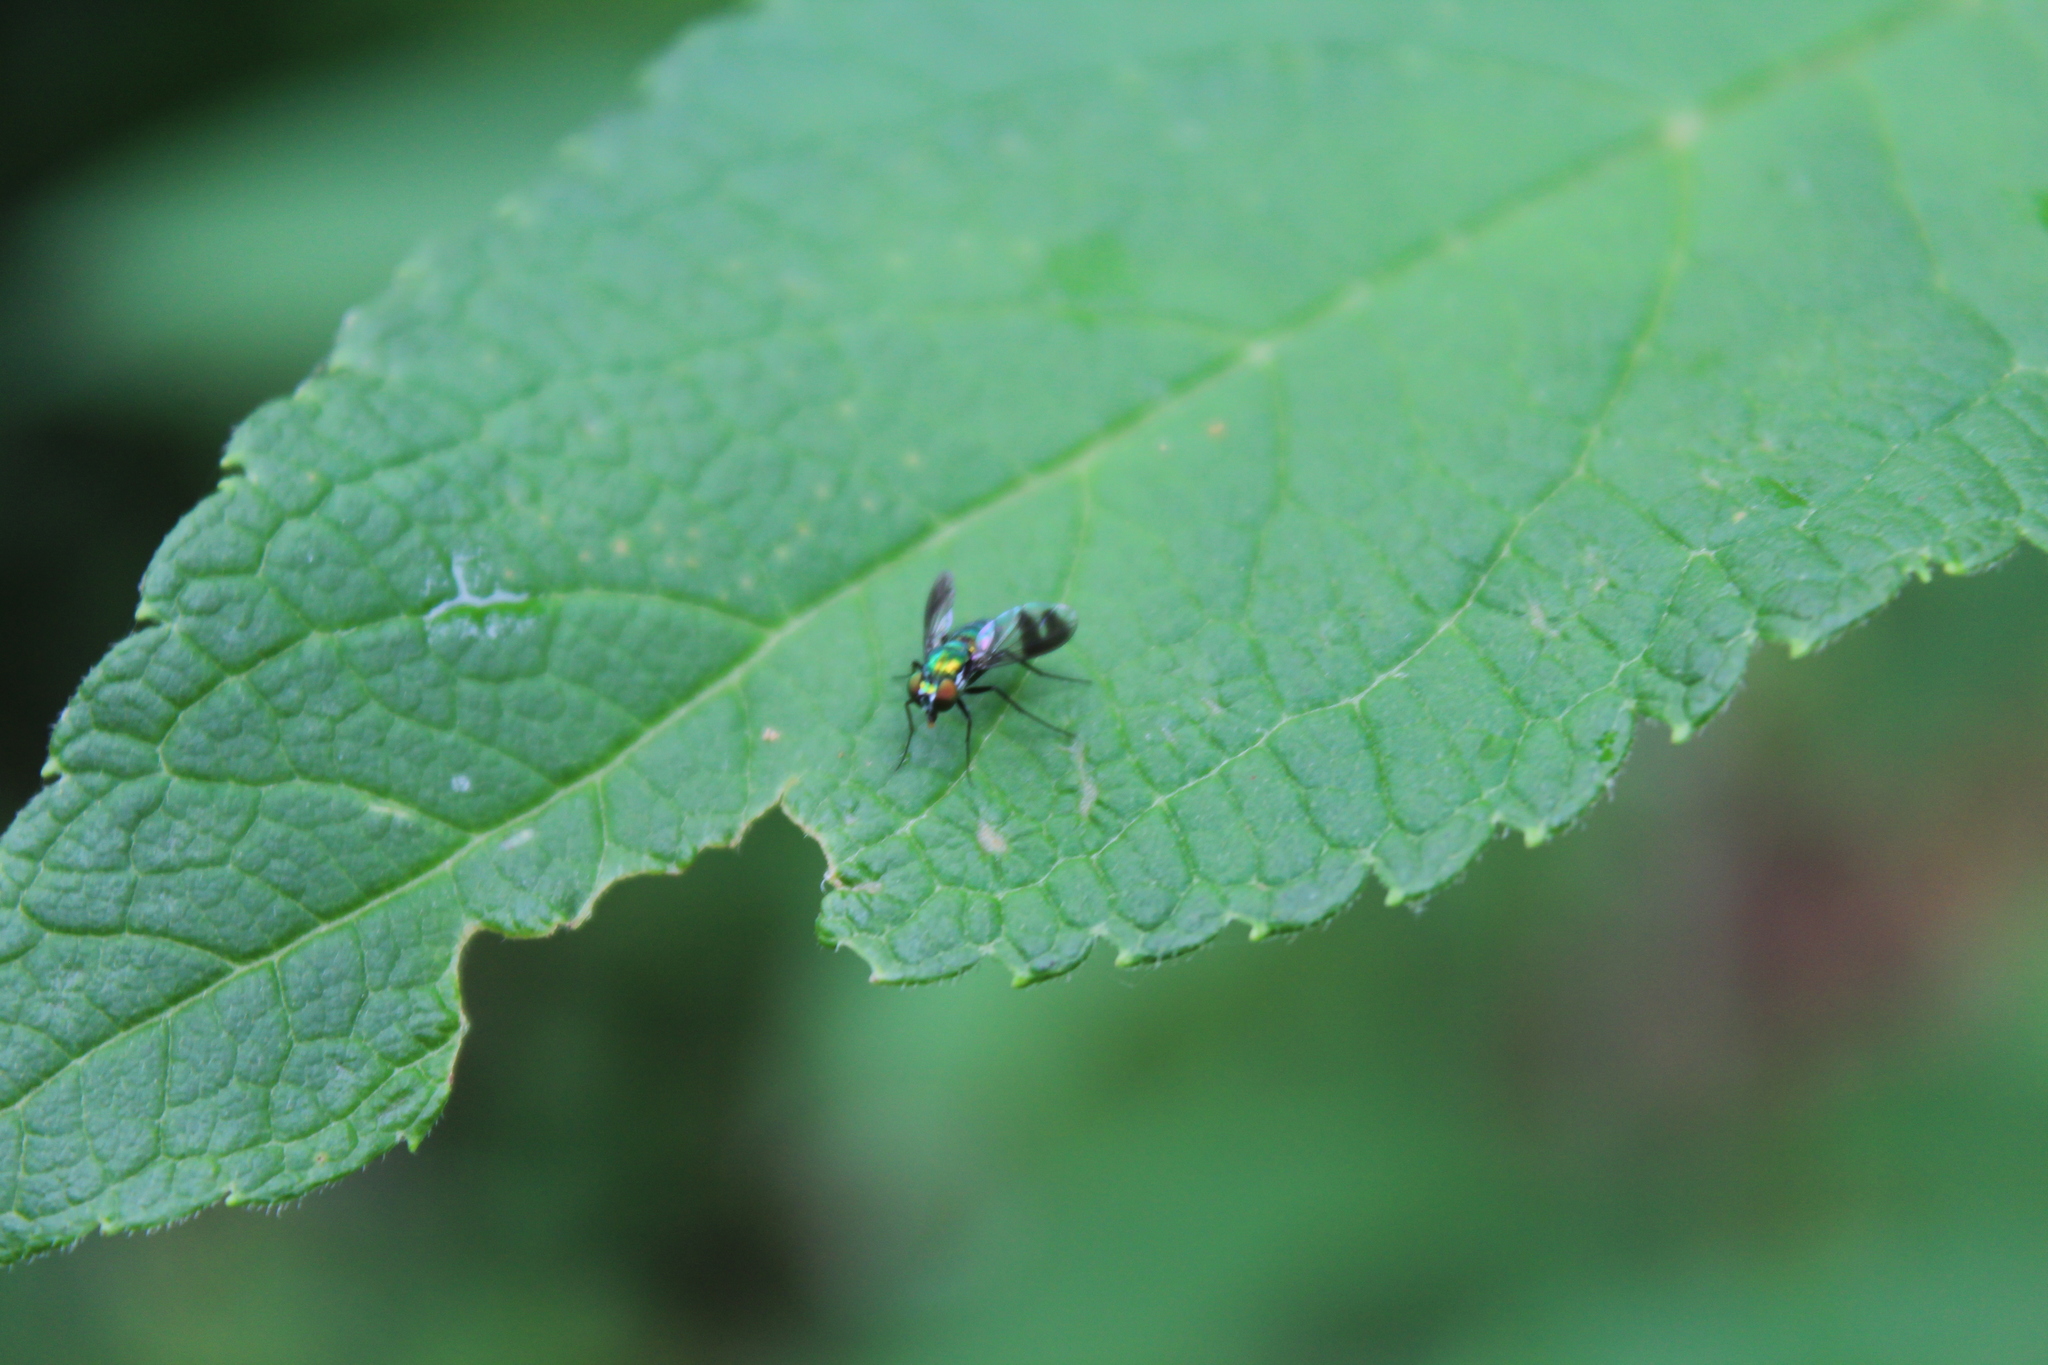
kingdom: Animalia
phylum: Arthropoda
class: Insecta
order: Diptera
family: Dolichopodidae
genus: Condylostylus
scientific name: Condylostylus patibulatus
